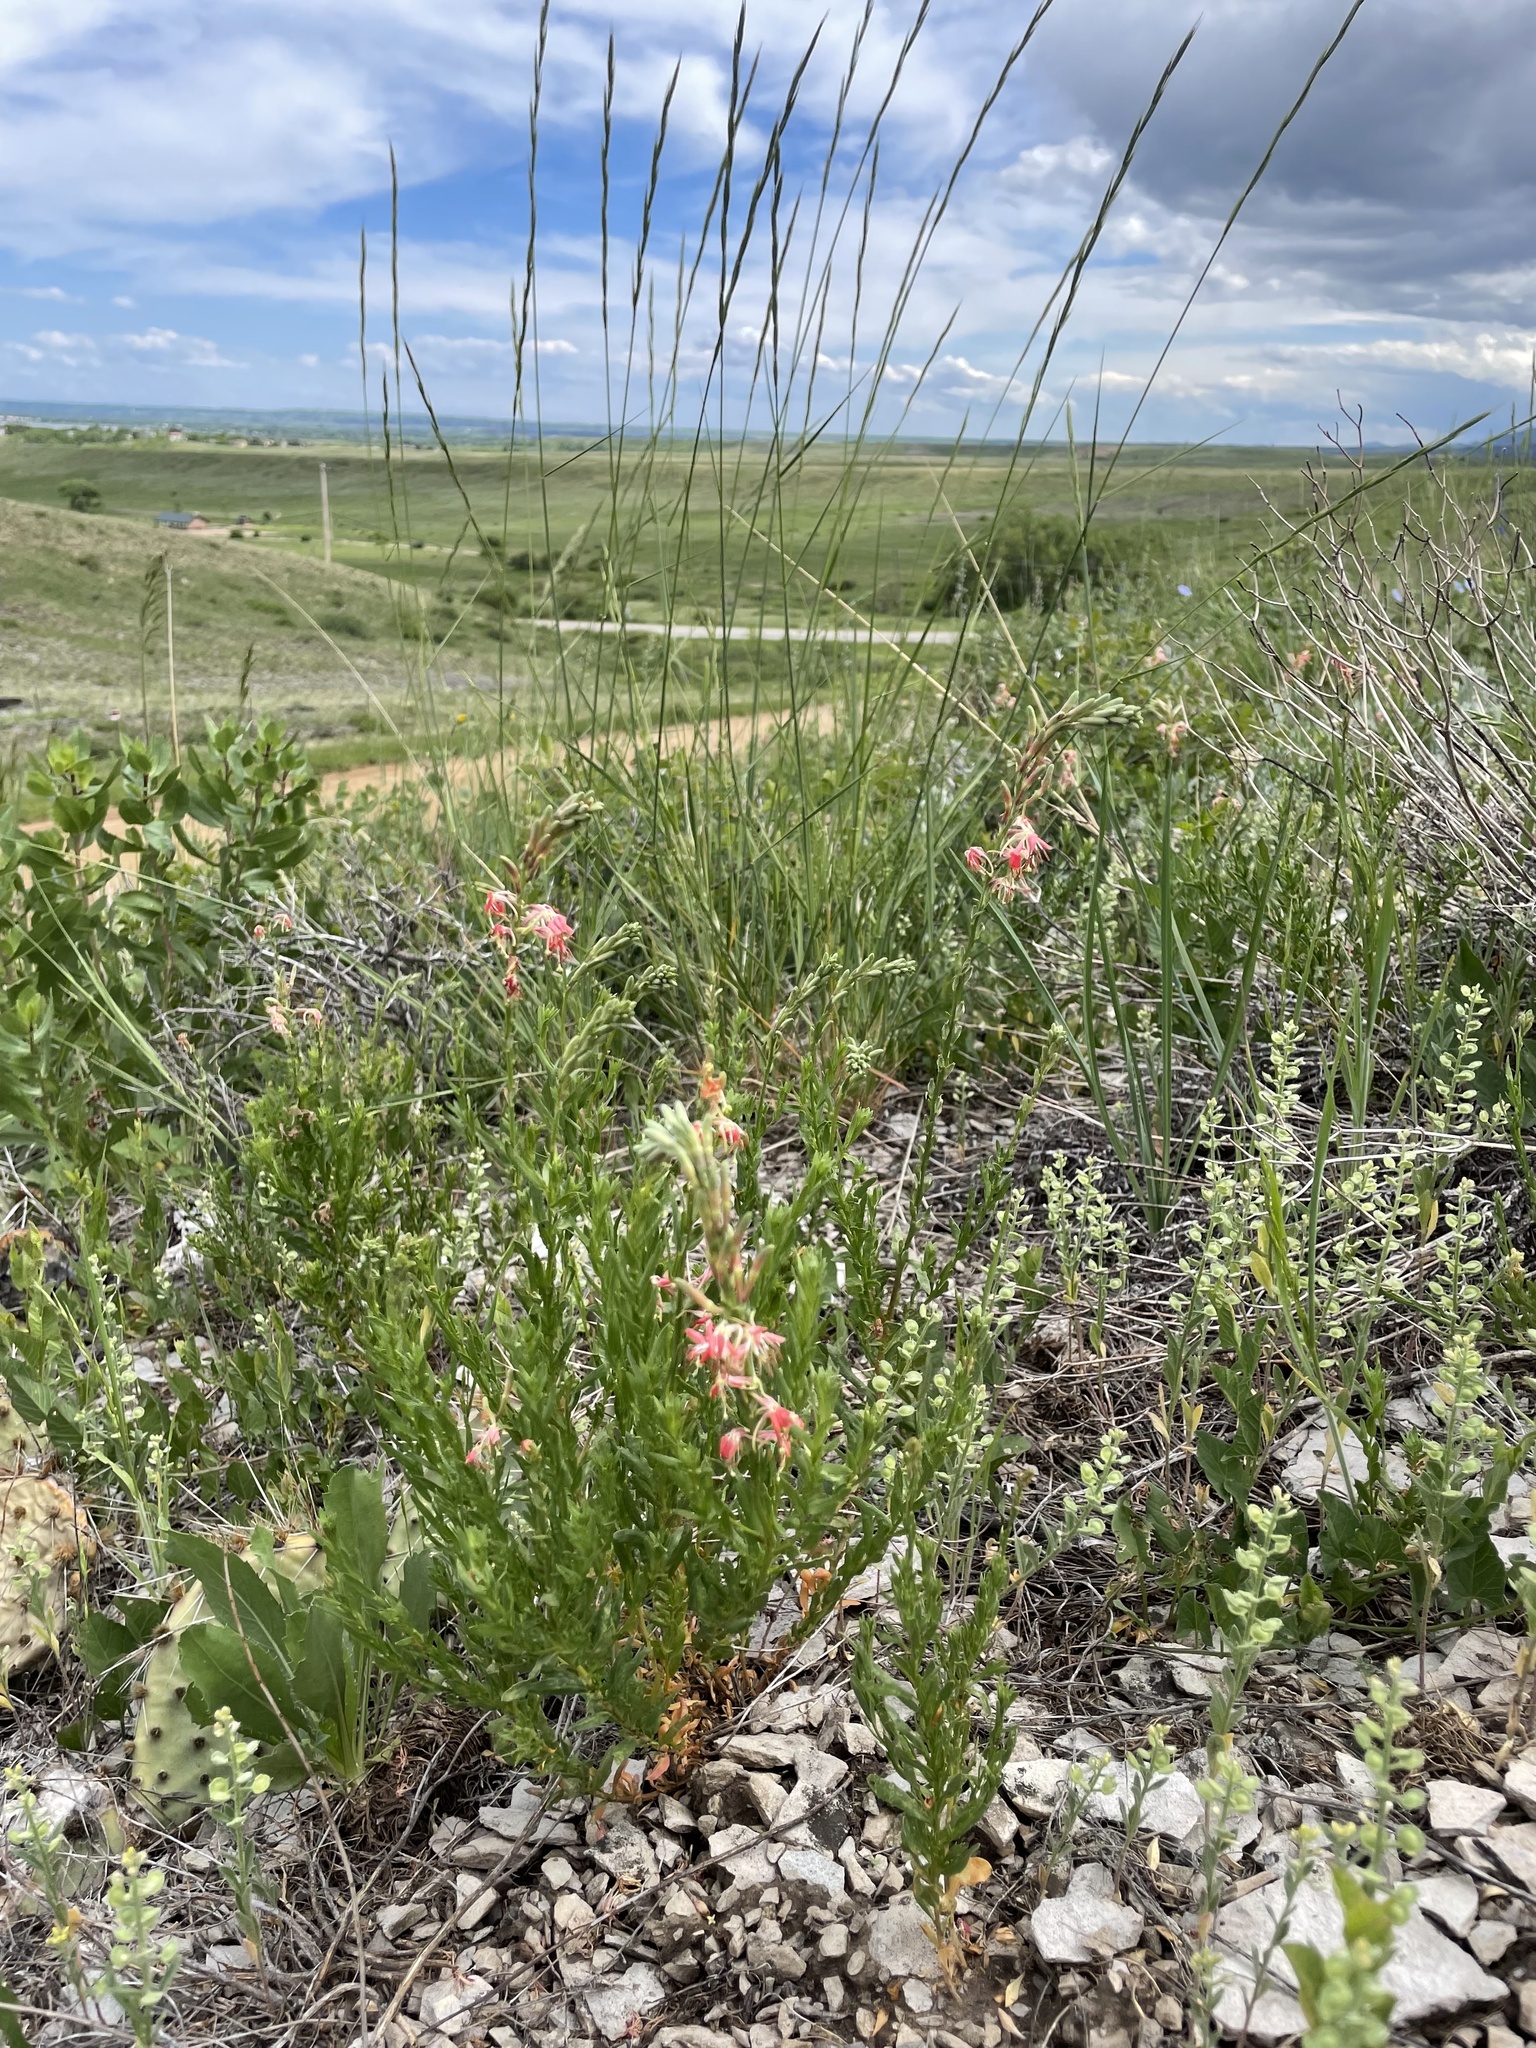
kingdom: Plantae
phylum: Tracheophyta
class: Magnoliopsida
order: Myrtales
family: Onagraceae
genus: Oenothera
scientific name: Oenothera suffrutescens
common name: Scarlet beeblossom
